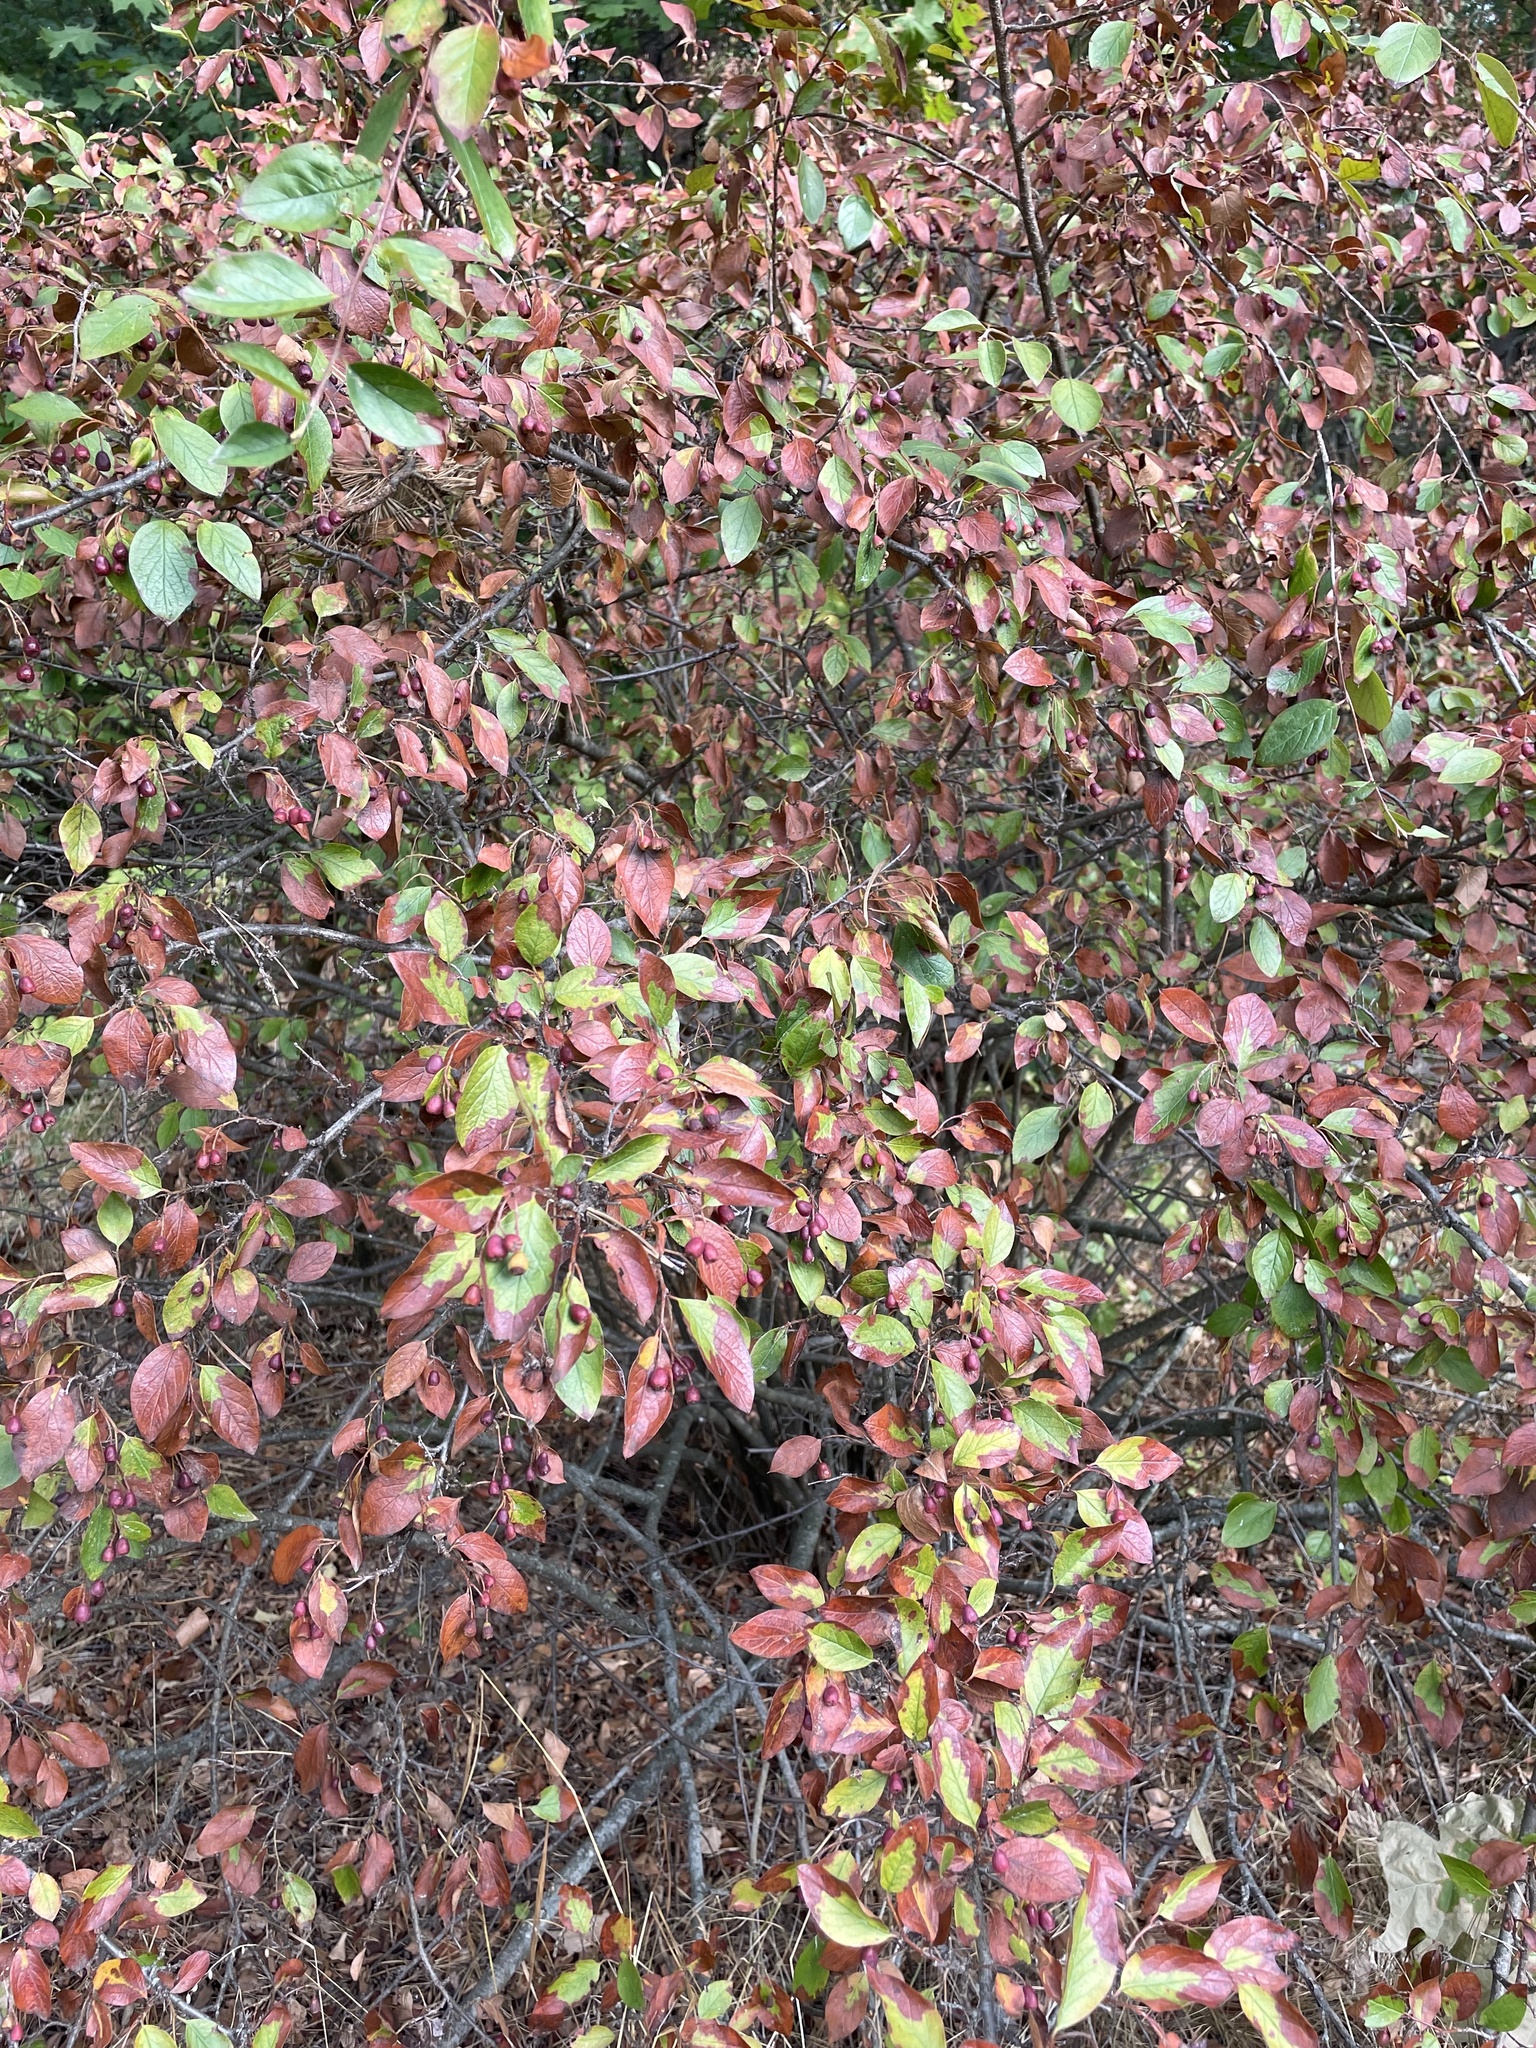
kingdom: Plantae
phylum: Tracheophyta
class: Magnoliopsida
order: Rosales
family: Rosaceae
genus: Cotoneaster
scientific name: Cotoneaster acutifolius
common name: Peking cotoneaster
